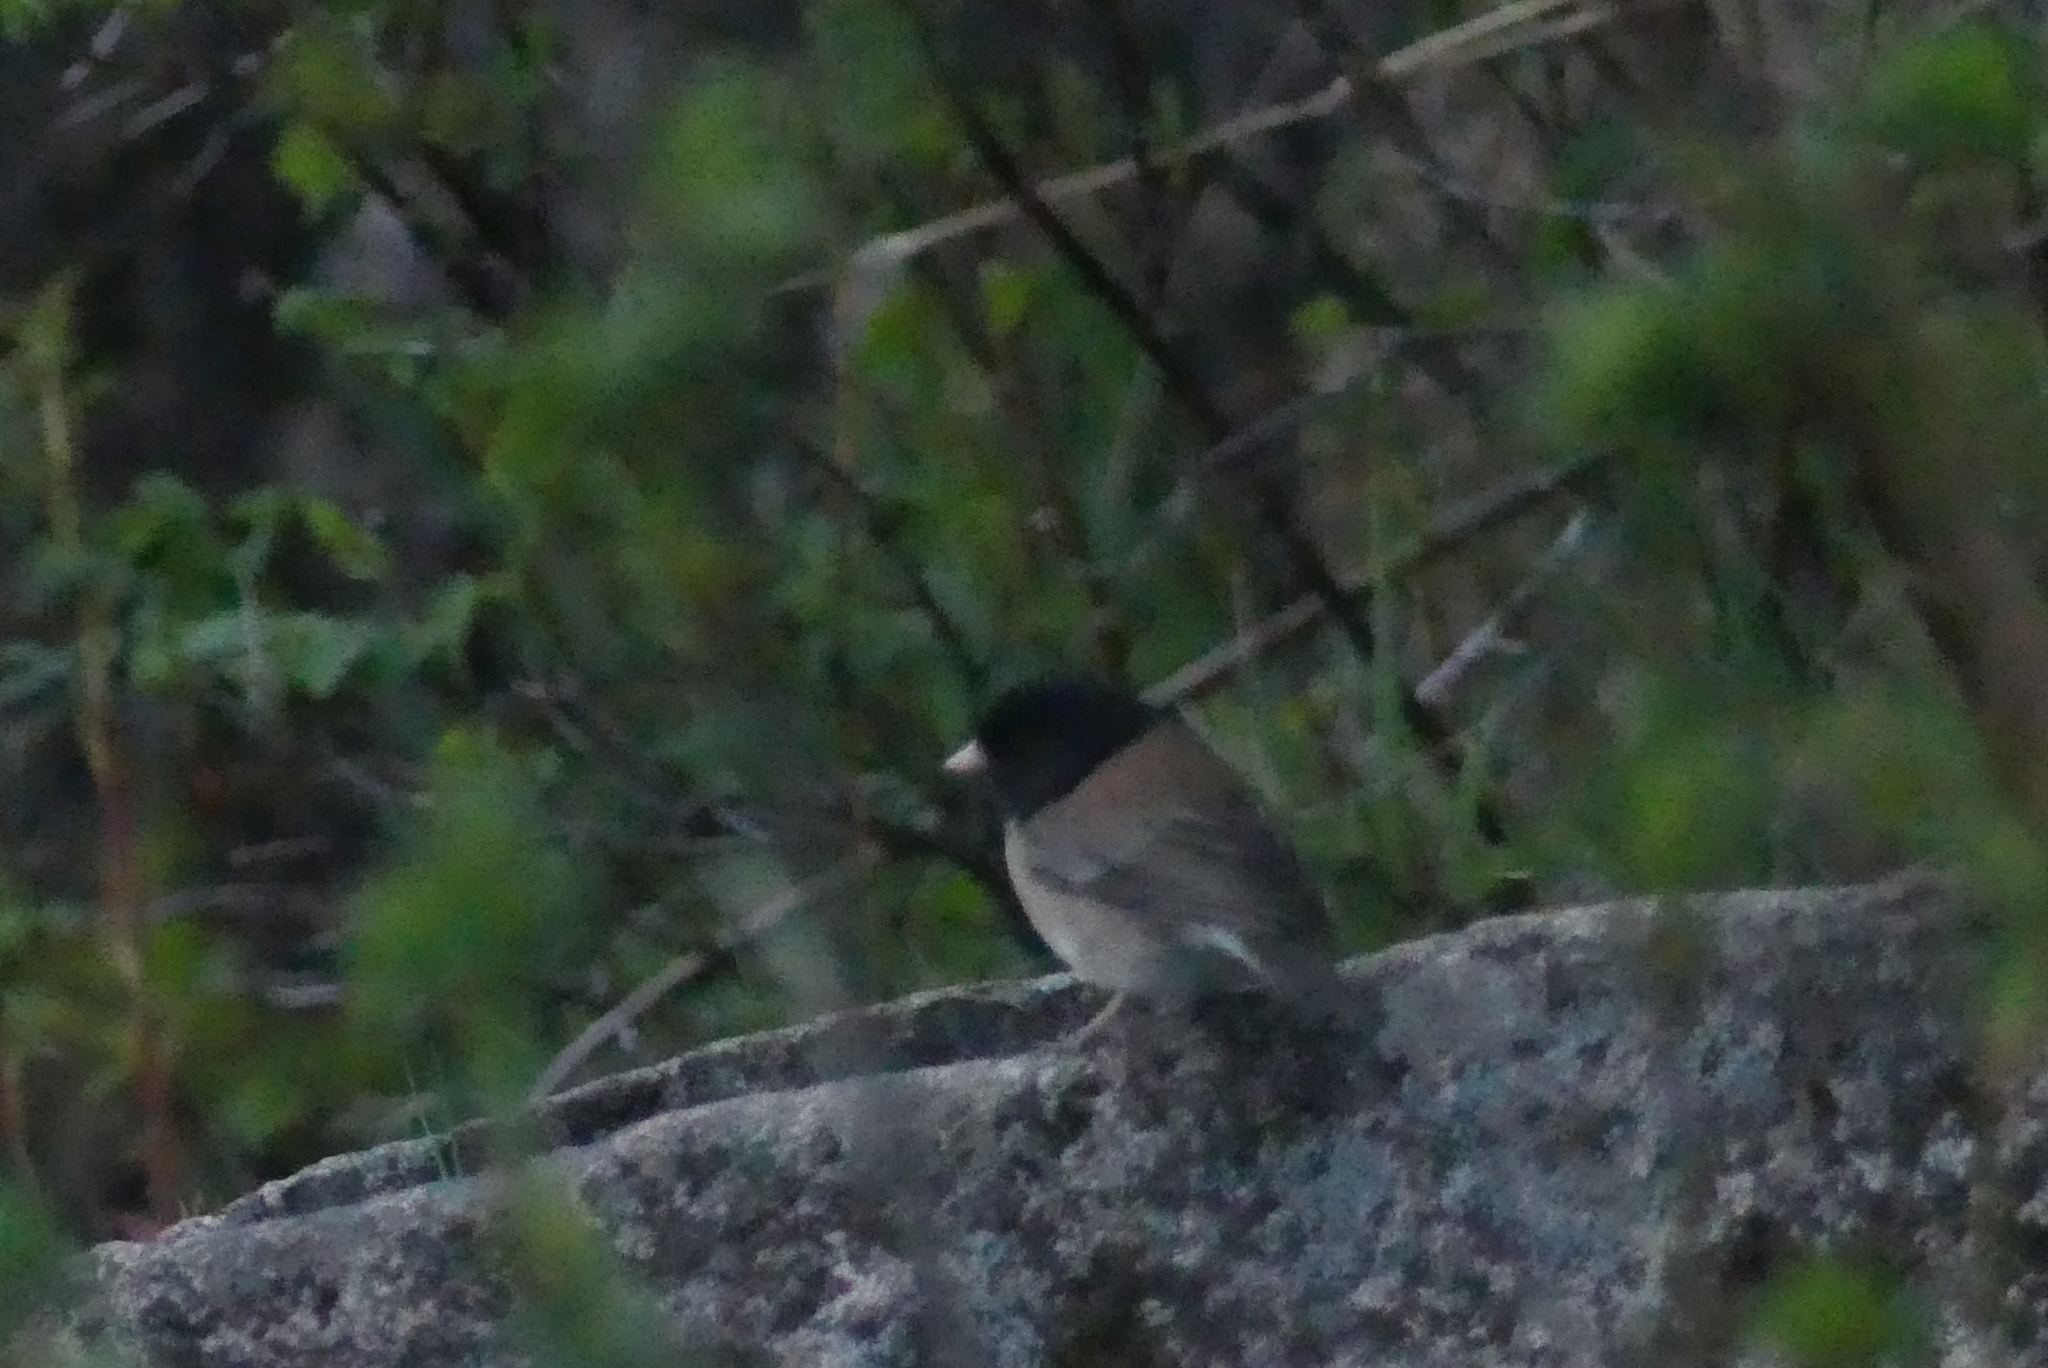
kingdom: Animalia
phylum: Chordata
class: Aves
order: Passeriformes
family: Passerellidae
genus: Junco
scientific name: Junco hyemalis
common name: Dark-eyed junco
